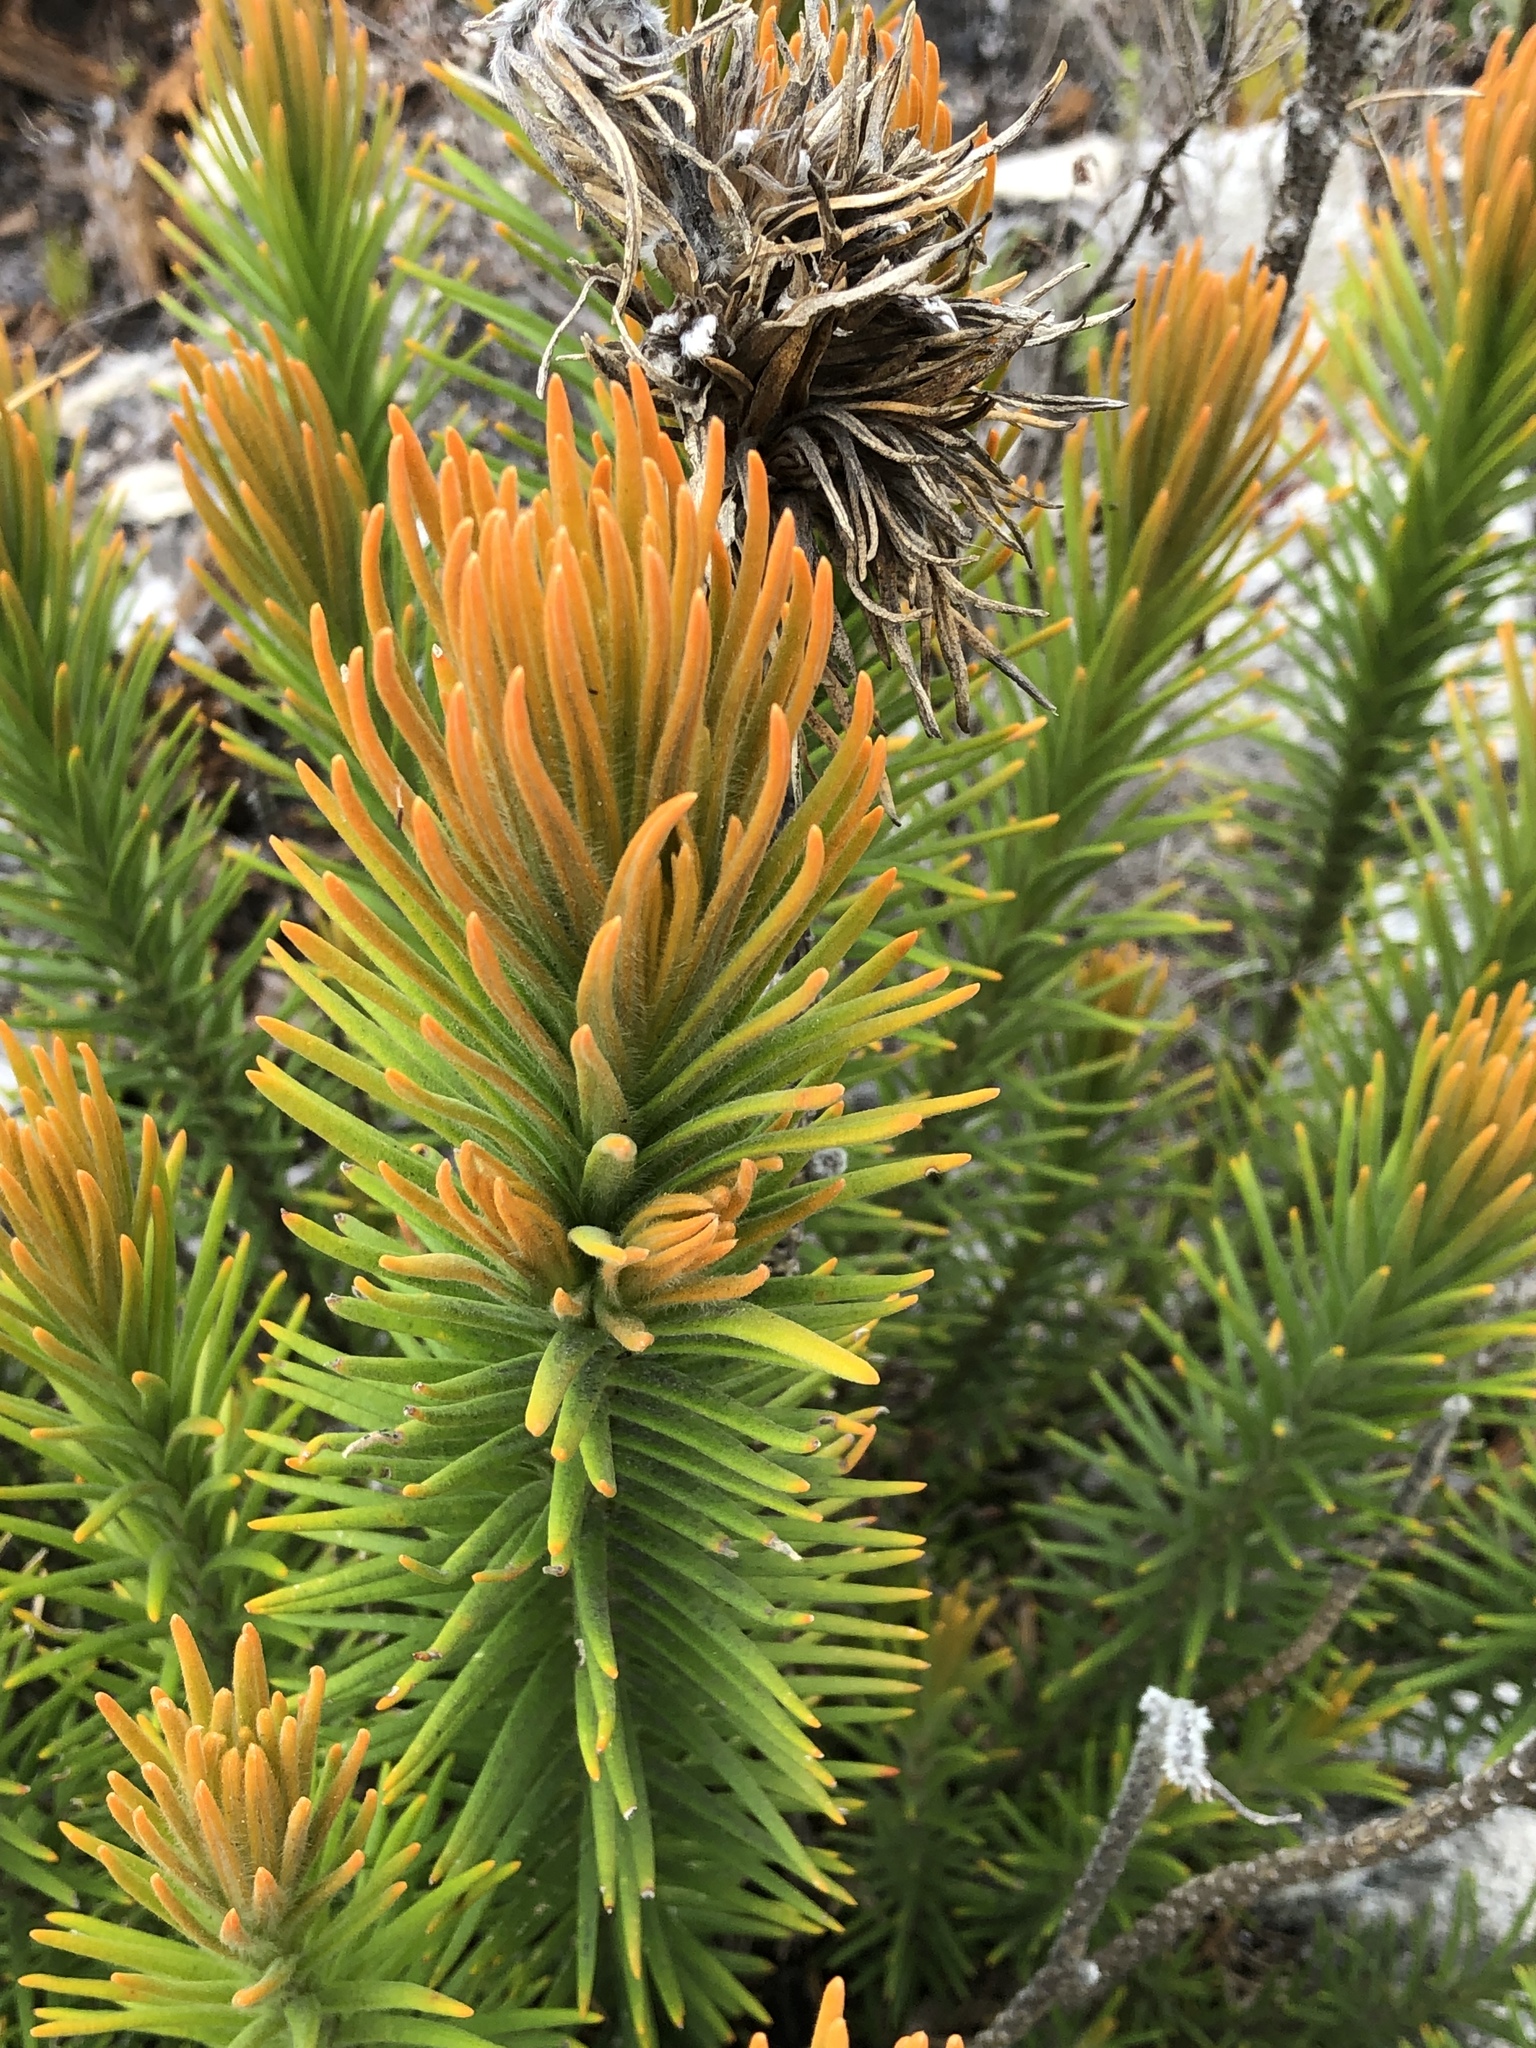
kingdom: Plantae
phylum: Tracheophyta
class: Magnoliopsida
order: Lamiales
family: Stilbaceae
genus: Retzia
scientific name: Retzia capensis
